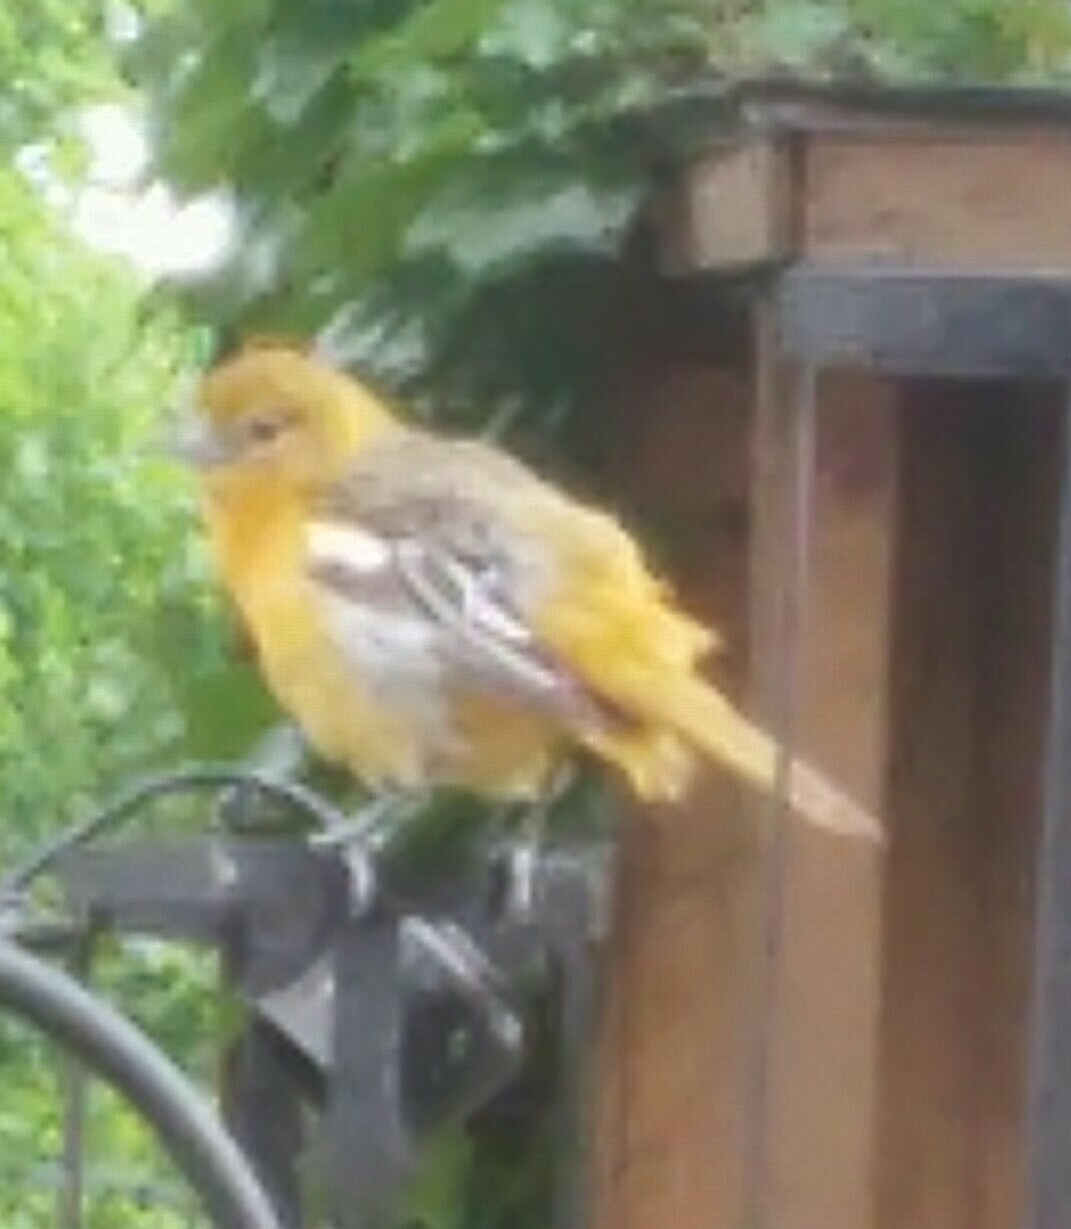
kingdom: Animalia
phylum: Chordata
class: Aves
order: Passeriformes
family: Icteridae
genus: Icterus
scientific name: Icterus galbula
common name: Baltimore oriole
